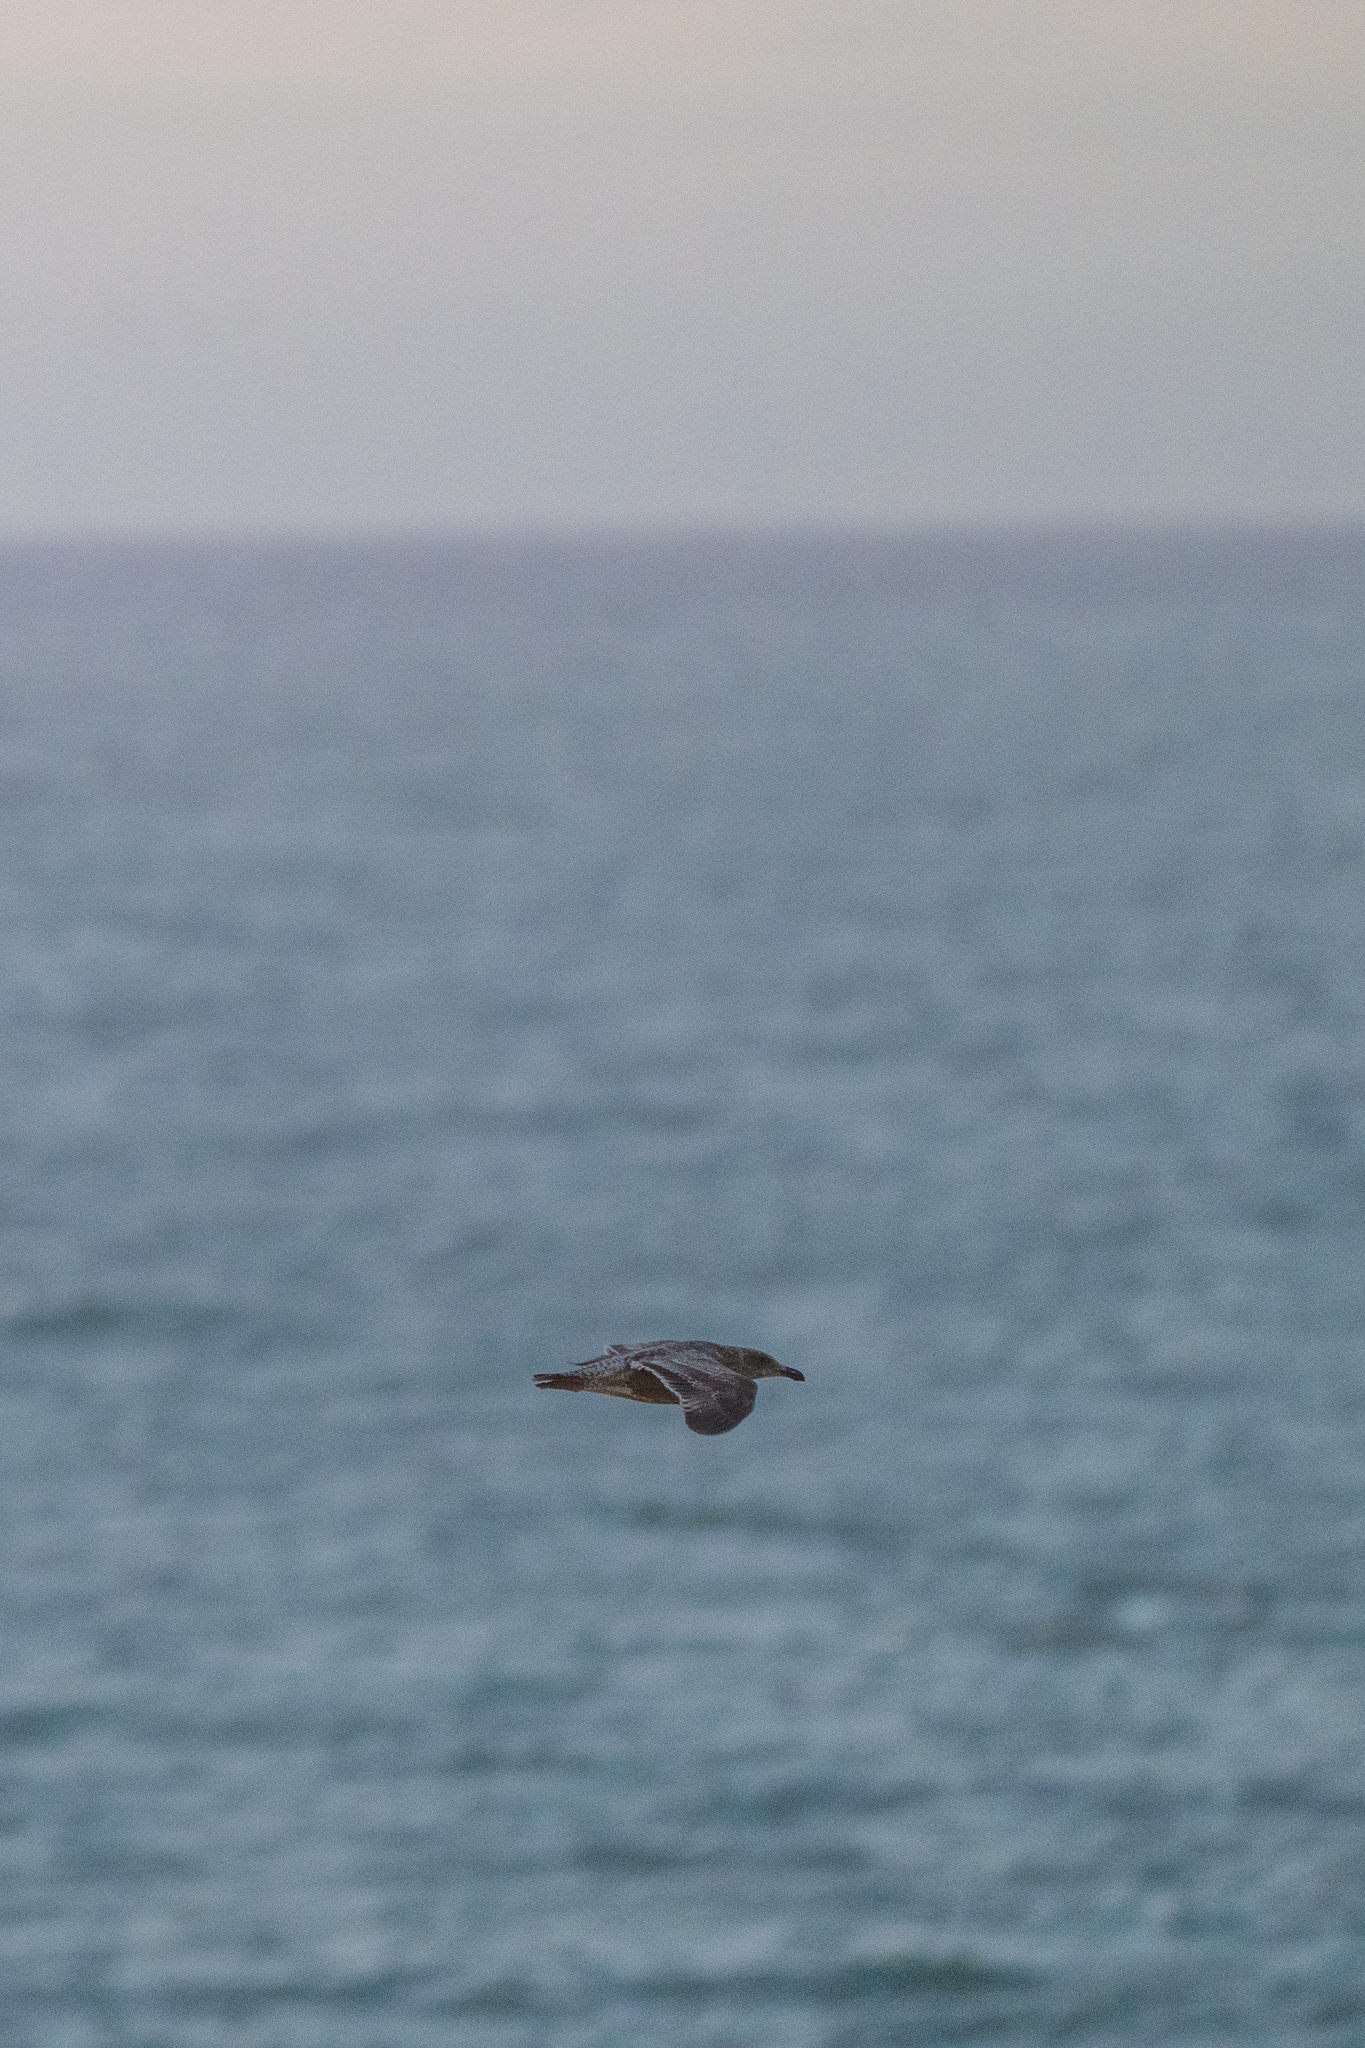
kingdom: Animalia
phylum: Chordata
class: Aves
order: Charadriiformes
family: Laridae
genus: Larus
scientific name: Larus
